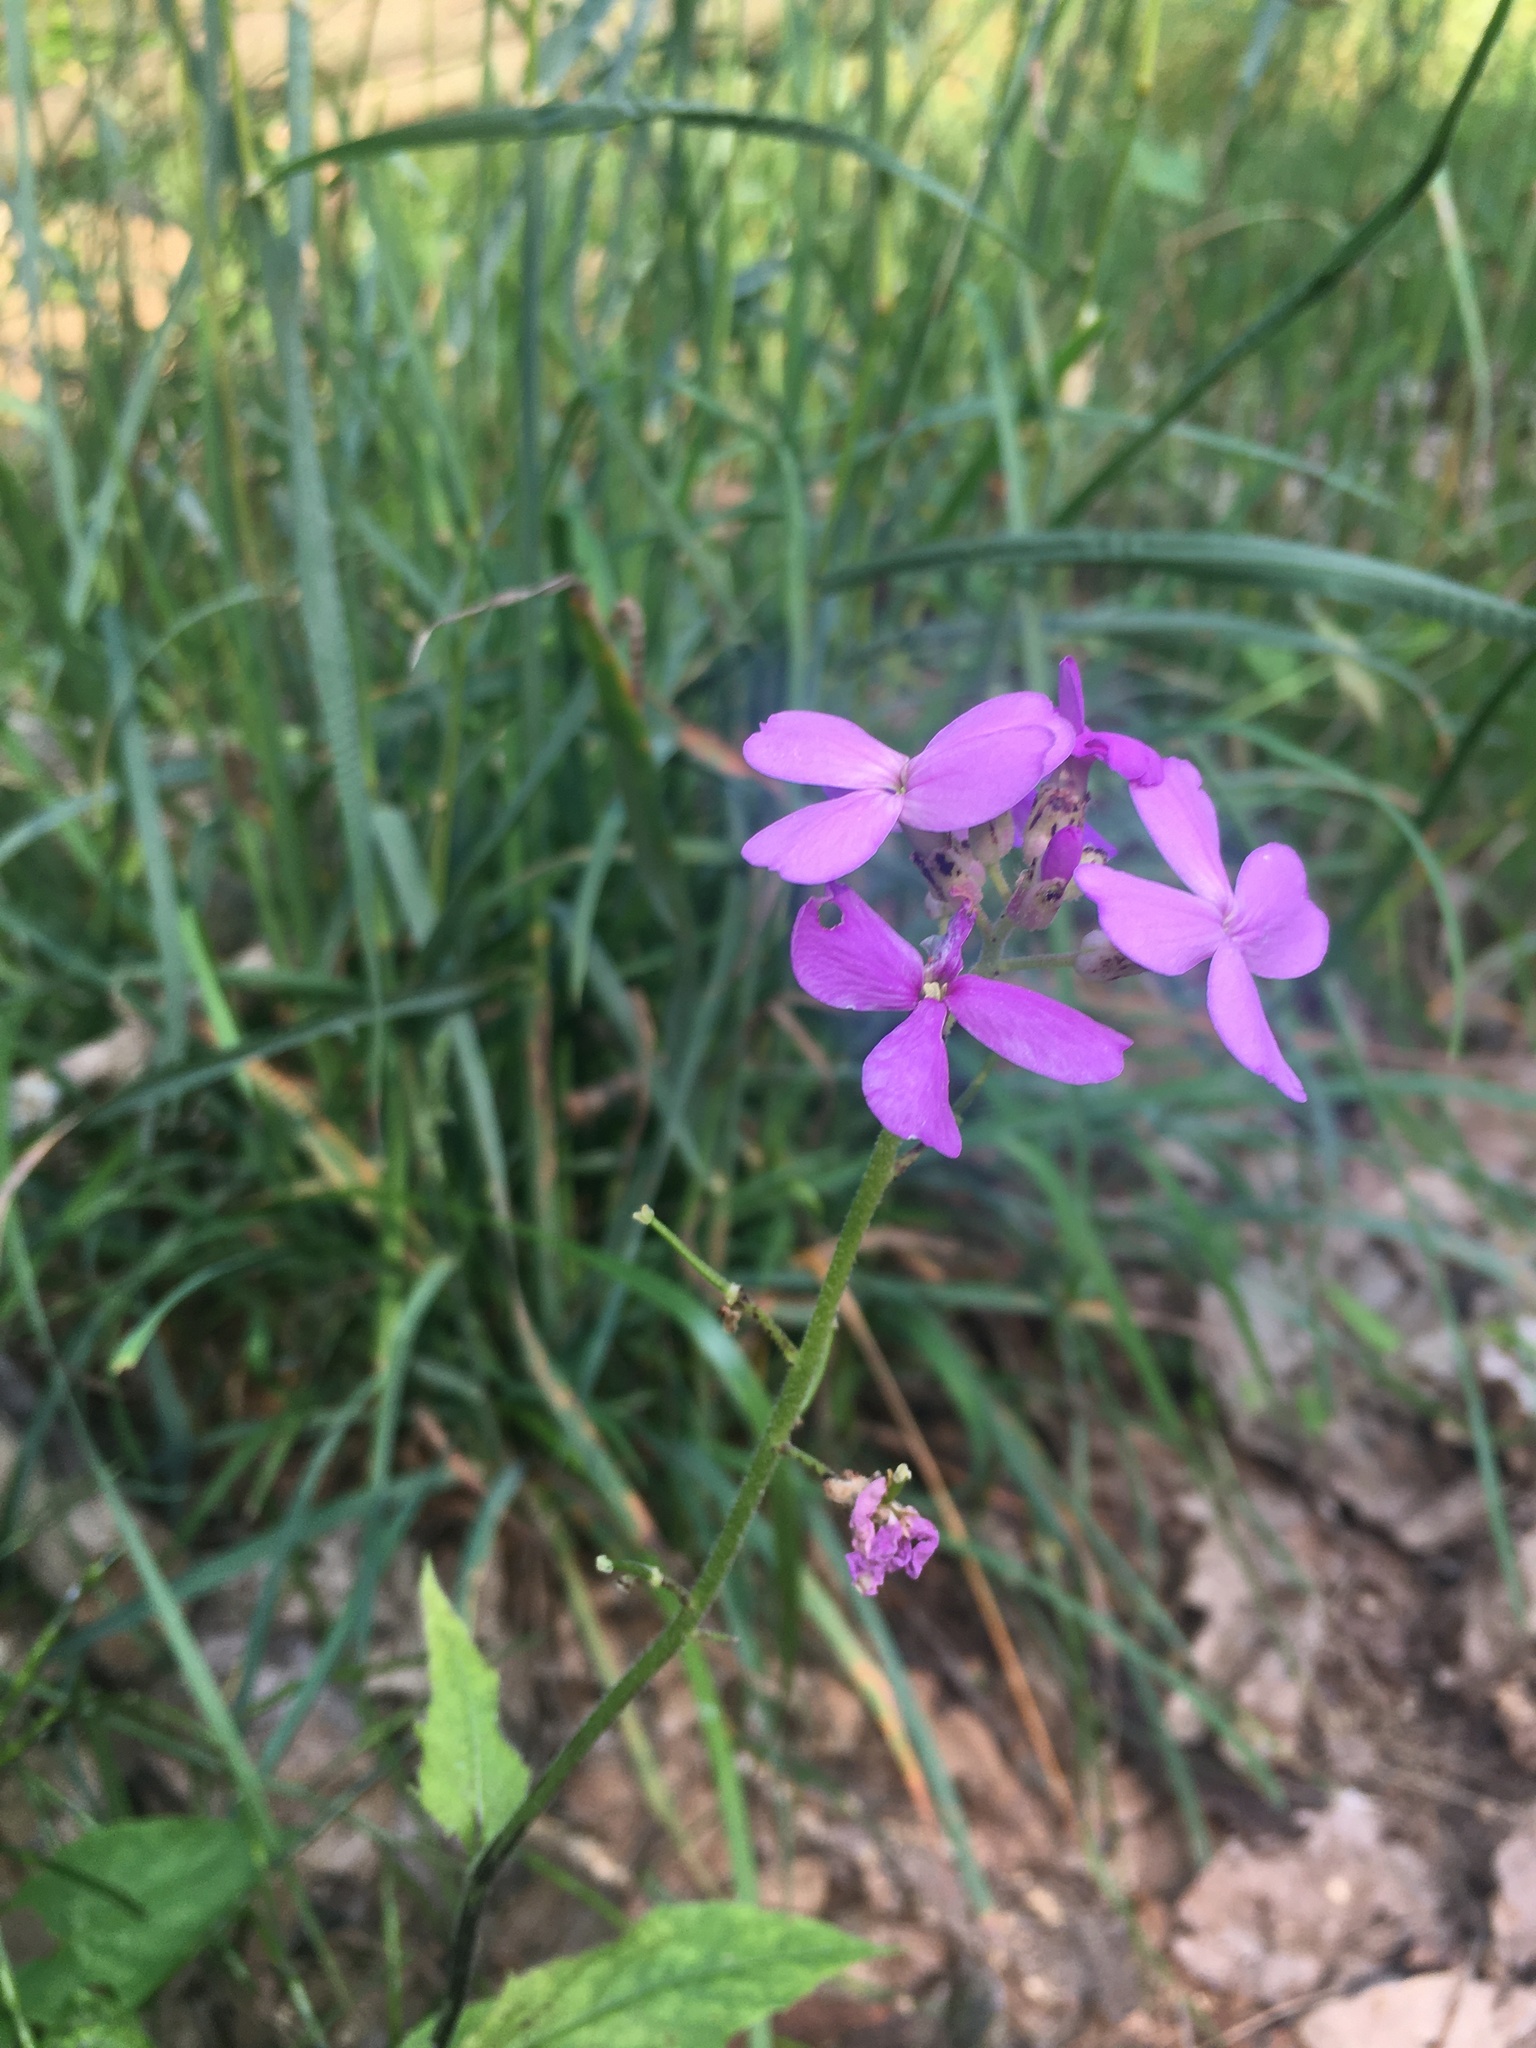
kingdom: Plantae
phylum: Tracheophyta
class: Magnoliopsida
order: Brassicales
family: Brassicaceae
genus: Hesperis
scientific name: Hesperis matronalis
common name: Dame's-violet
